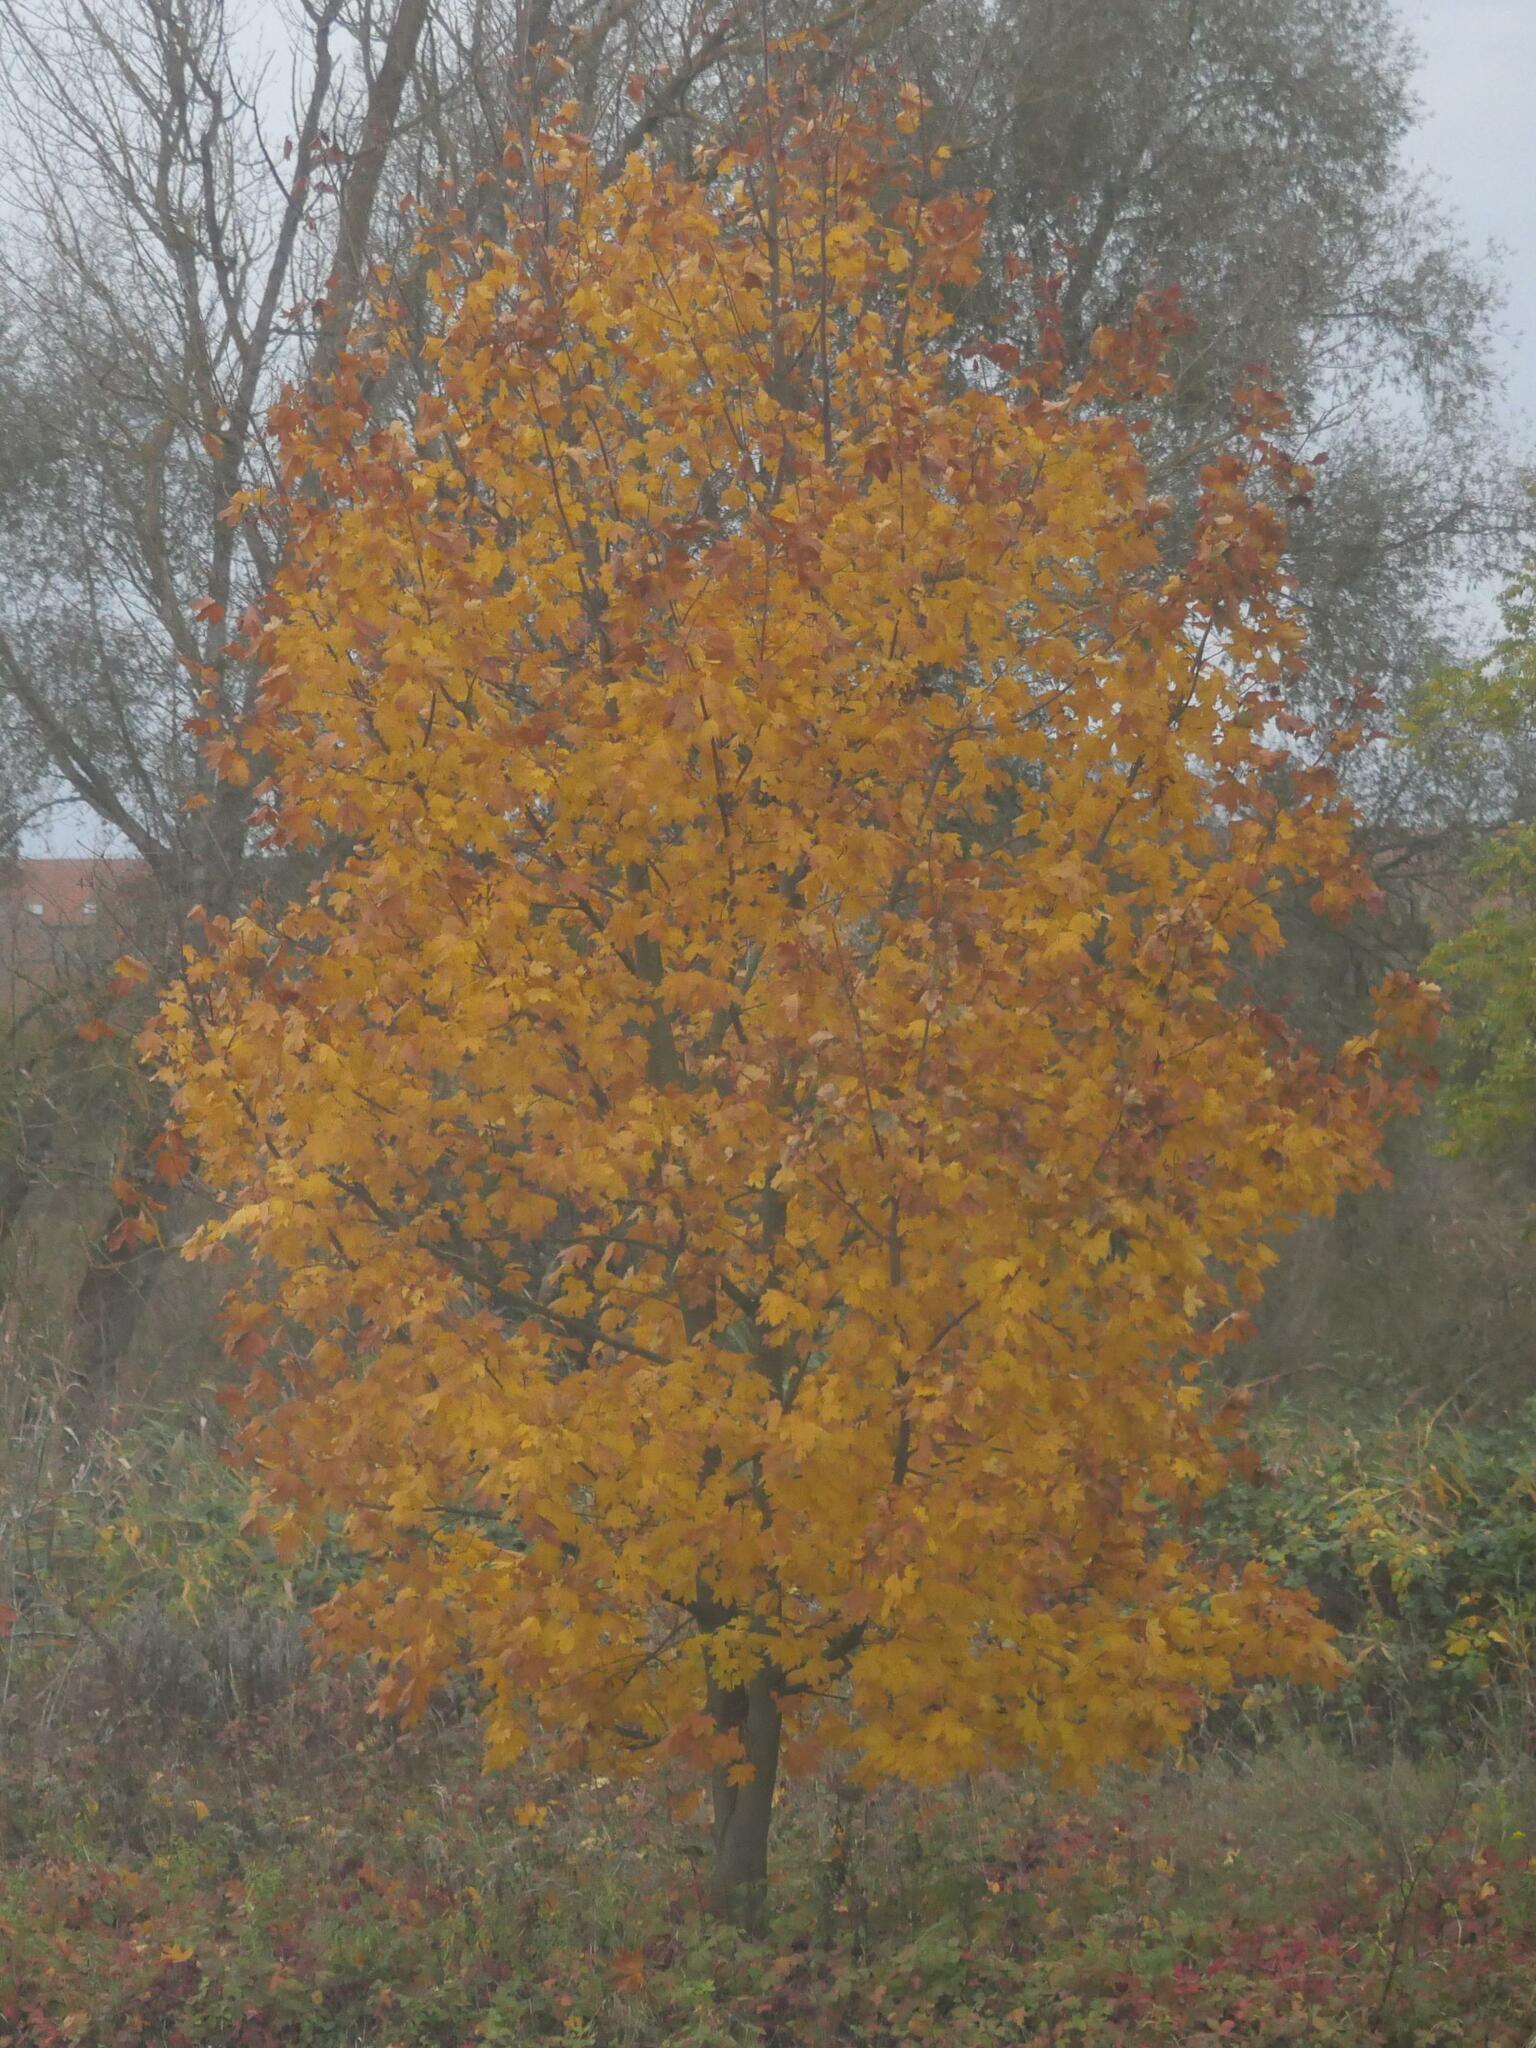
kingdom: Plantae
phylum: Tracheophyta
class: Magnoliopsida
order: Sapindales
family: Sapindaceae
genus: Acer
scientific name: Acer platanoides
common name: Norway maple
